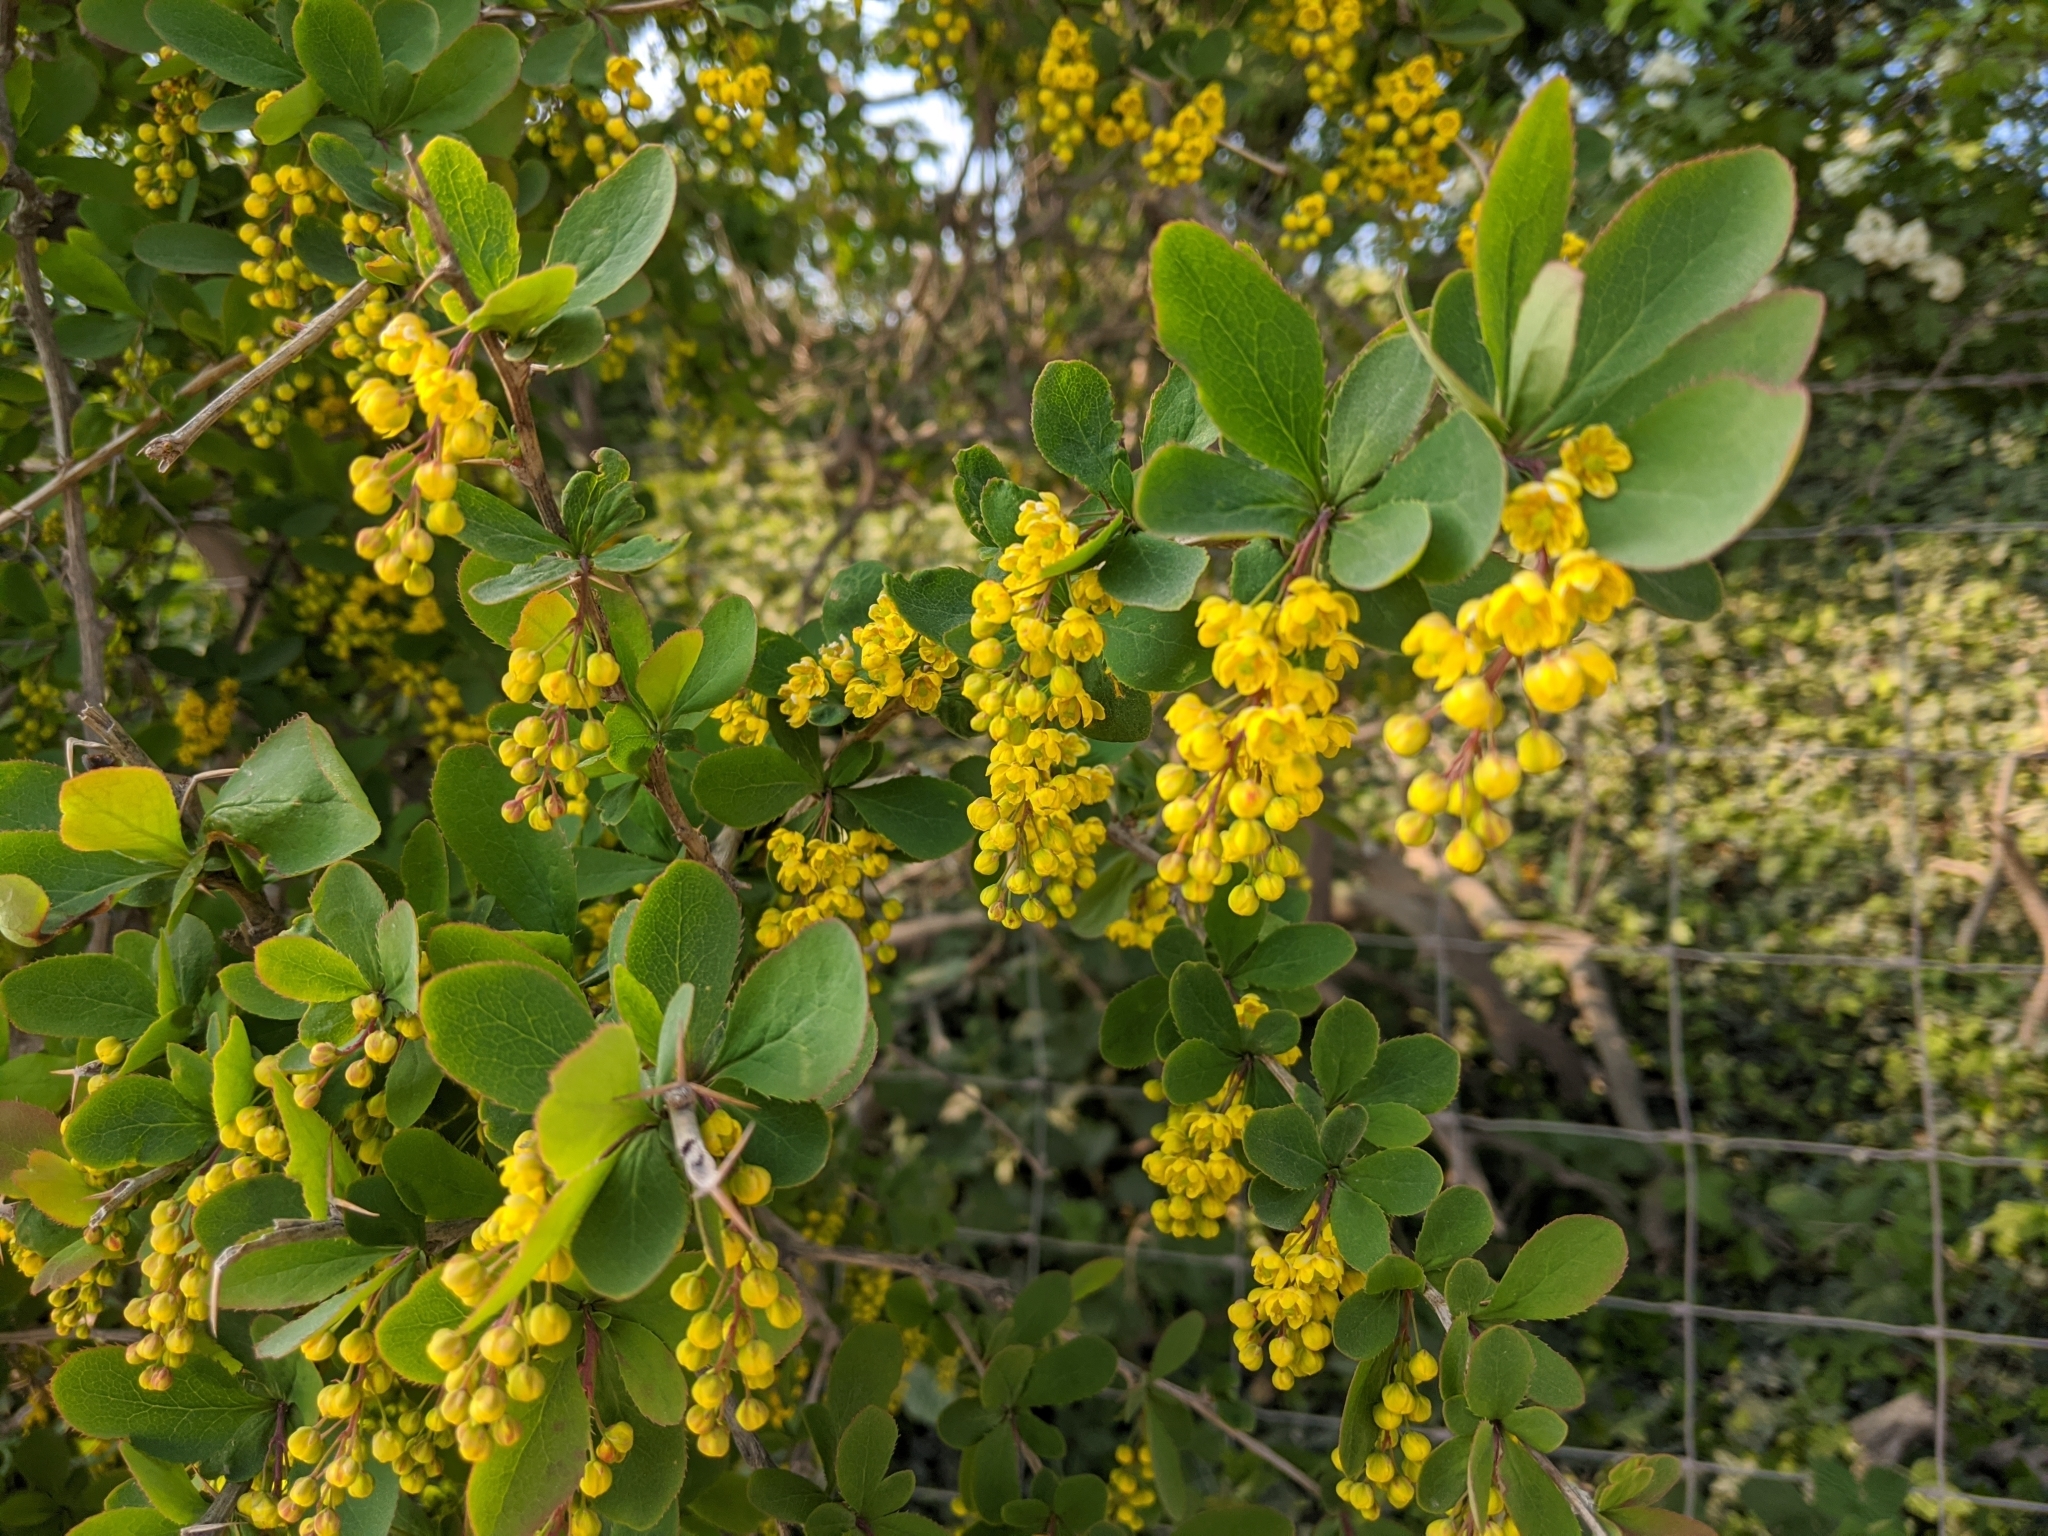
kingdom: Plantae
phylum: Tracheophyta
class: Magnoliopsida
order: Ranunculales
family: Berberidaceae
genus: Berberis
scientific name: Berberis vulgaris
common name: Barberry
